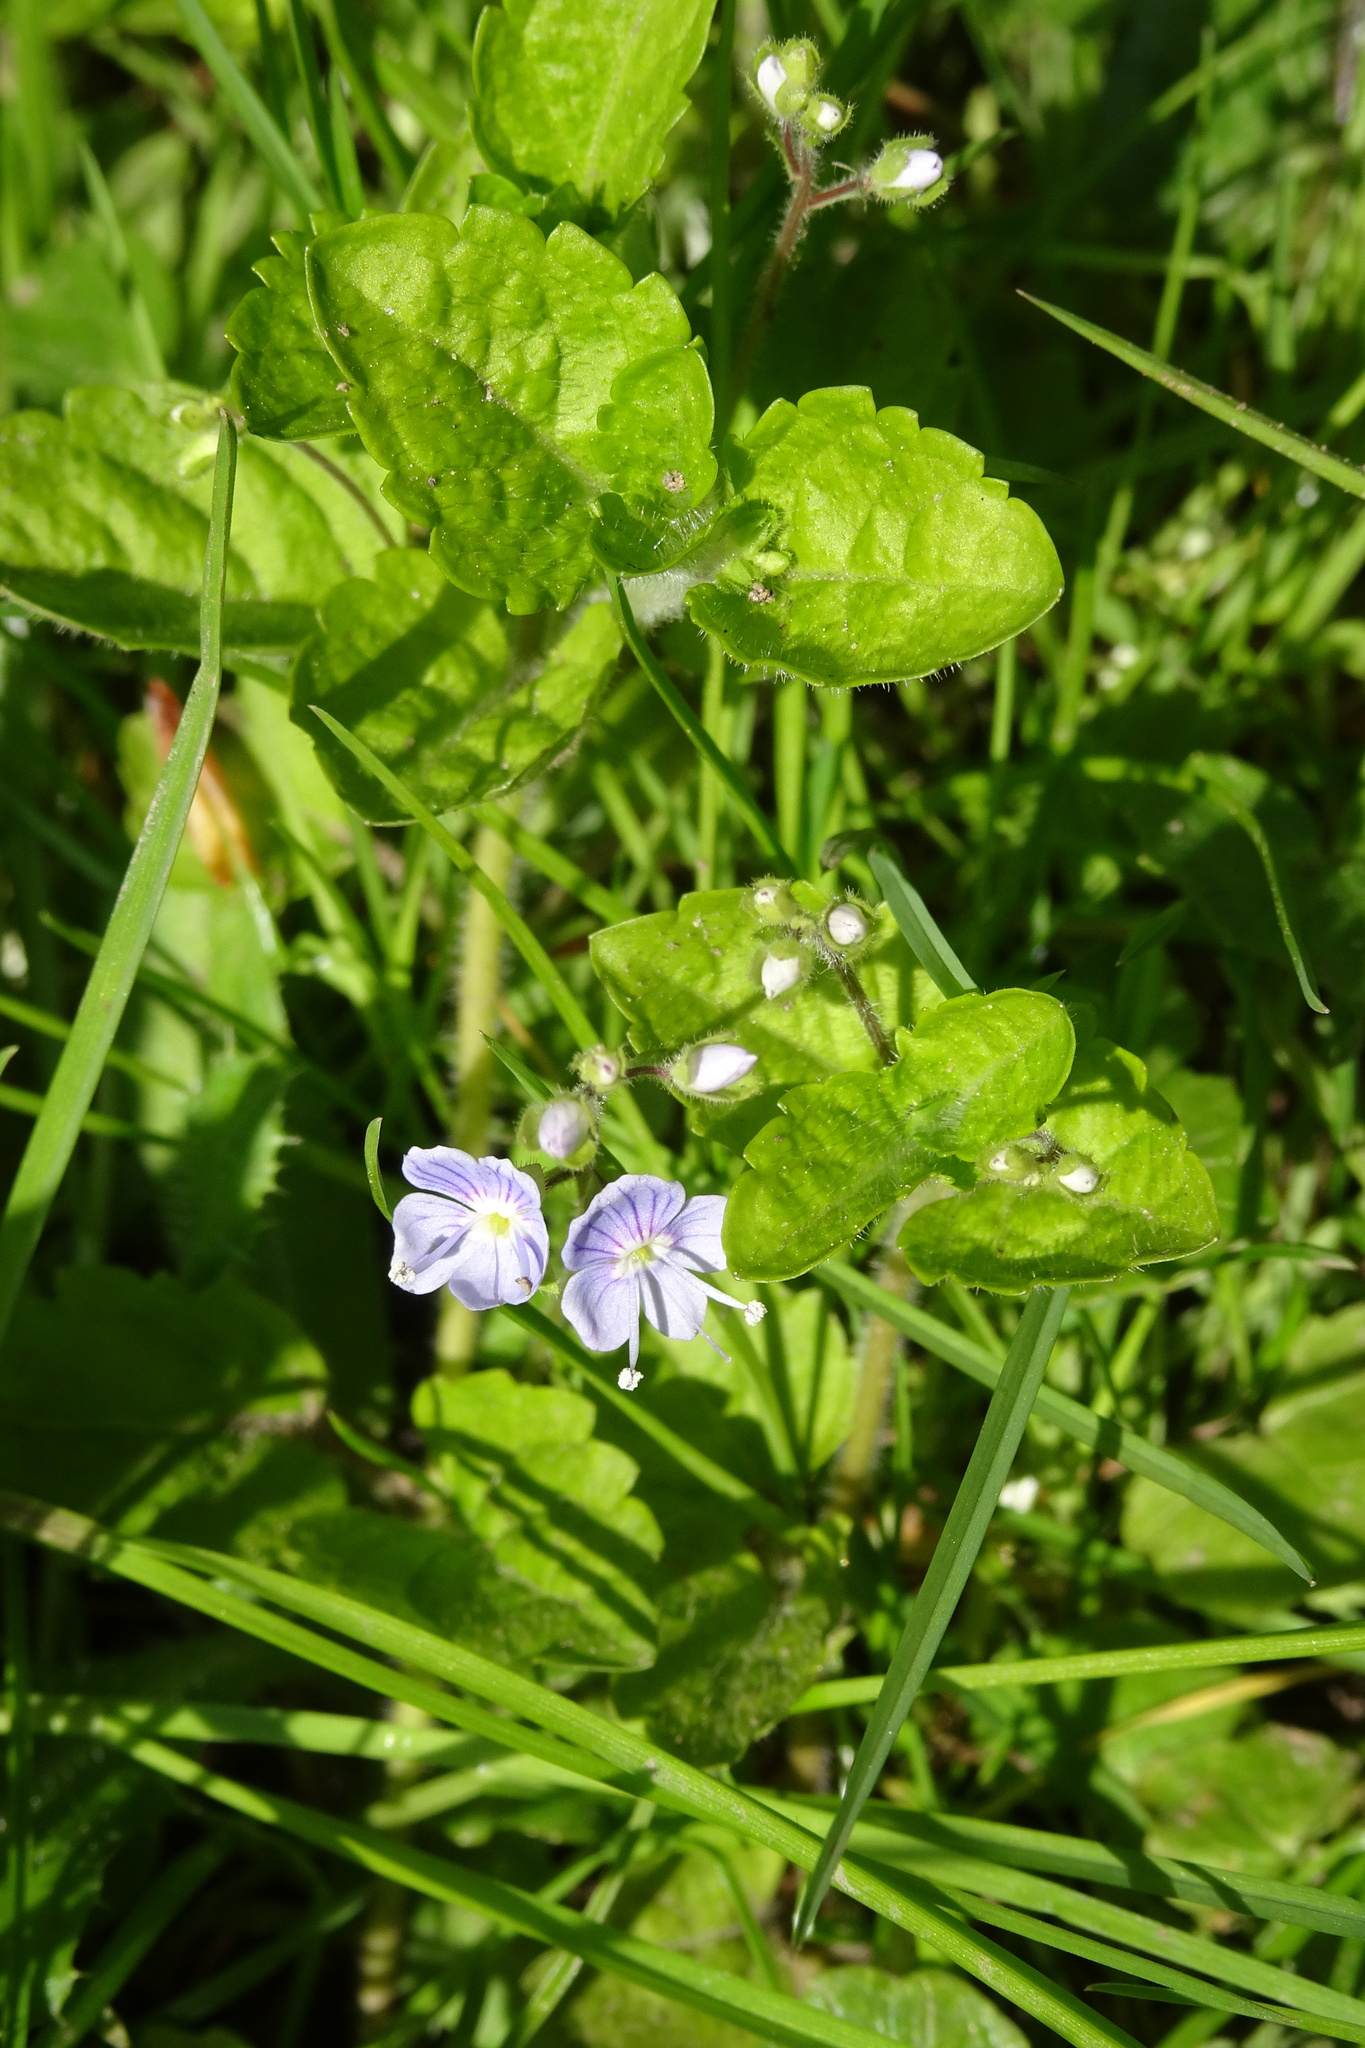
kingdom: Plantae
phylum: Tracheophyta
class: Magnoliopsida
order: Lamiales
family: Plantaginaceae
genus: Veronica
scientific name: Veronica montana
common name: Wood speedwell
